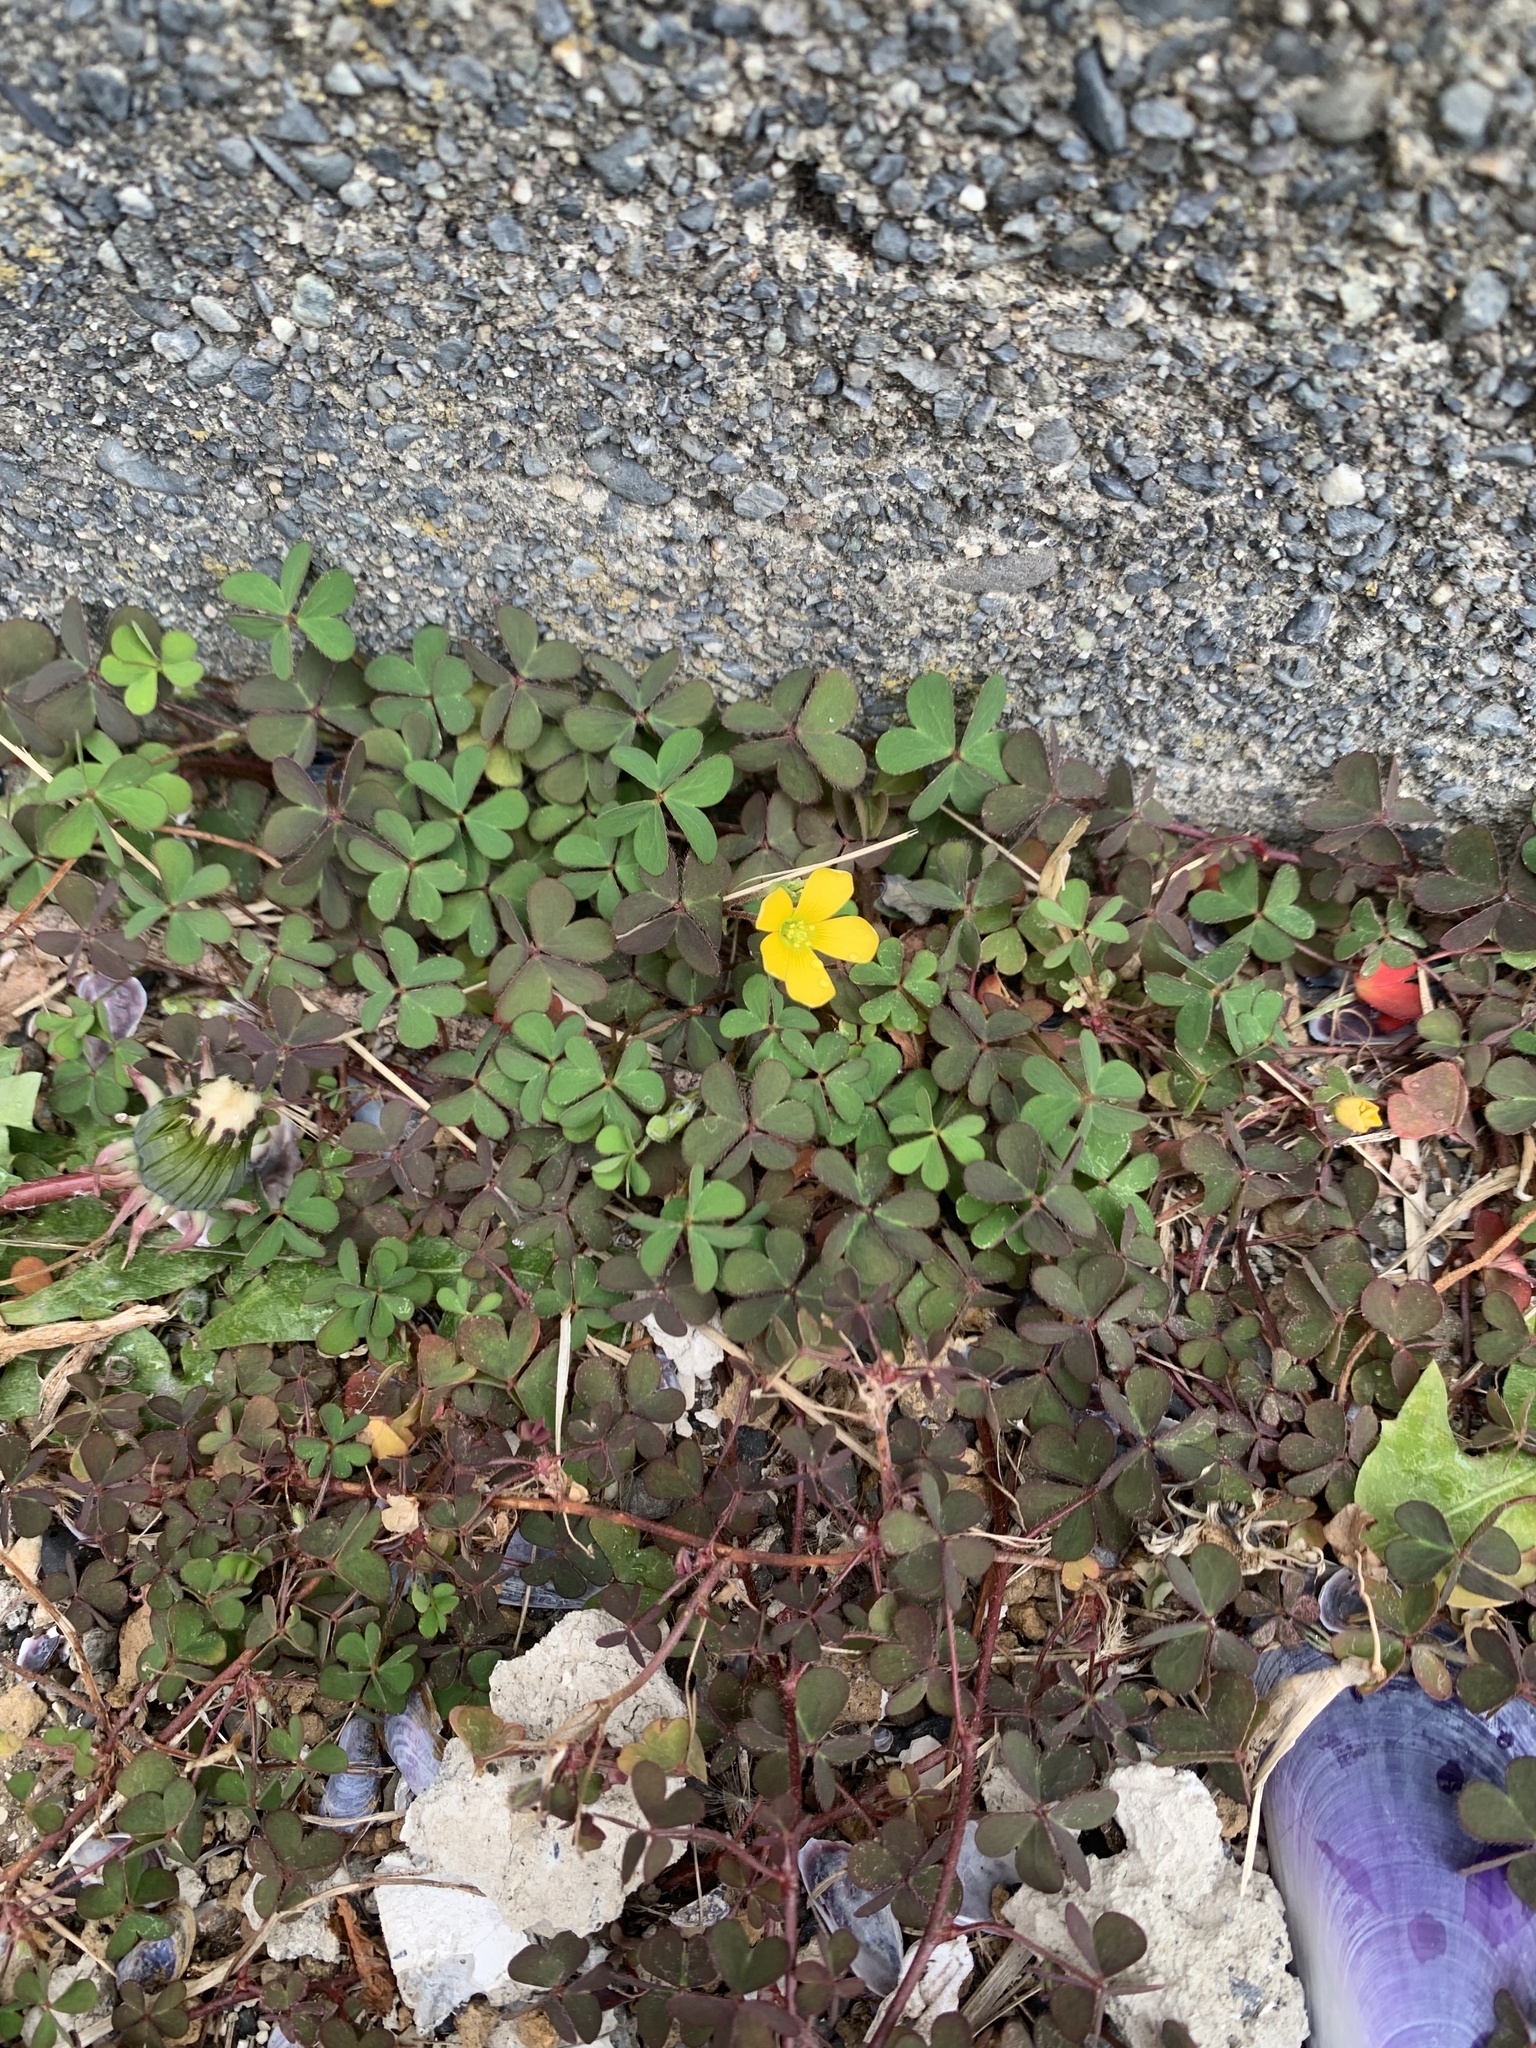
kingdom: Plantae
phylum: Tracheophyta
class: Magnoliopsida
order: Oxalidales
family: Oxalidaceae
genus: Oxalis
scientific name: Oxalis corniculata
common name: Procumbent yellow-sorrel
